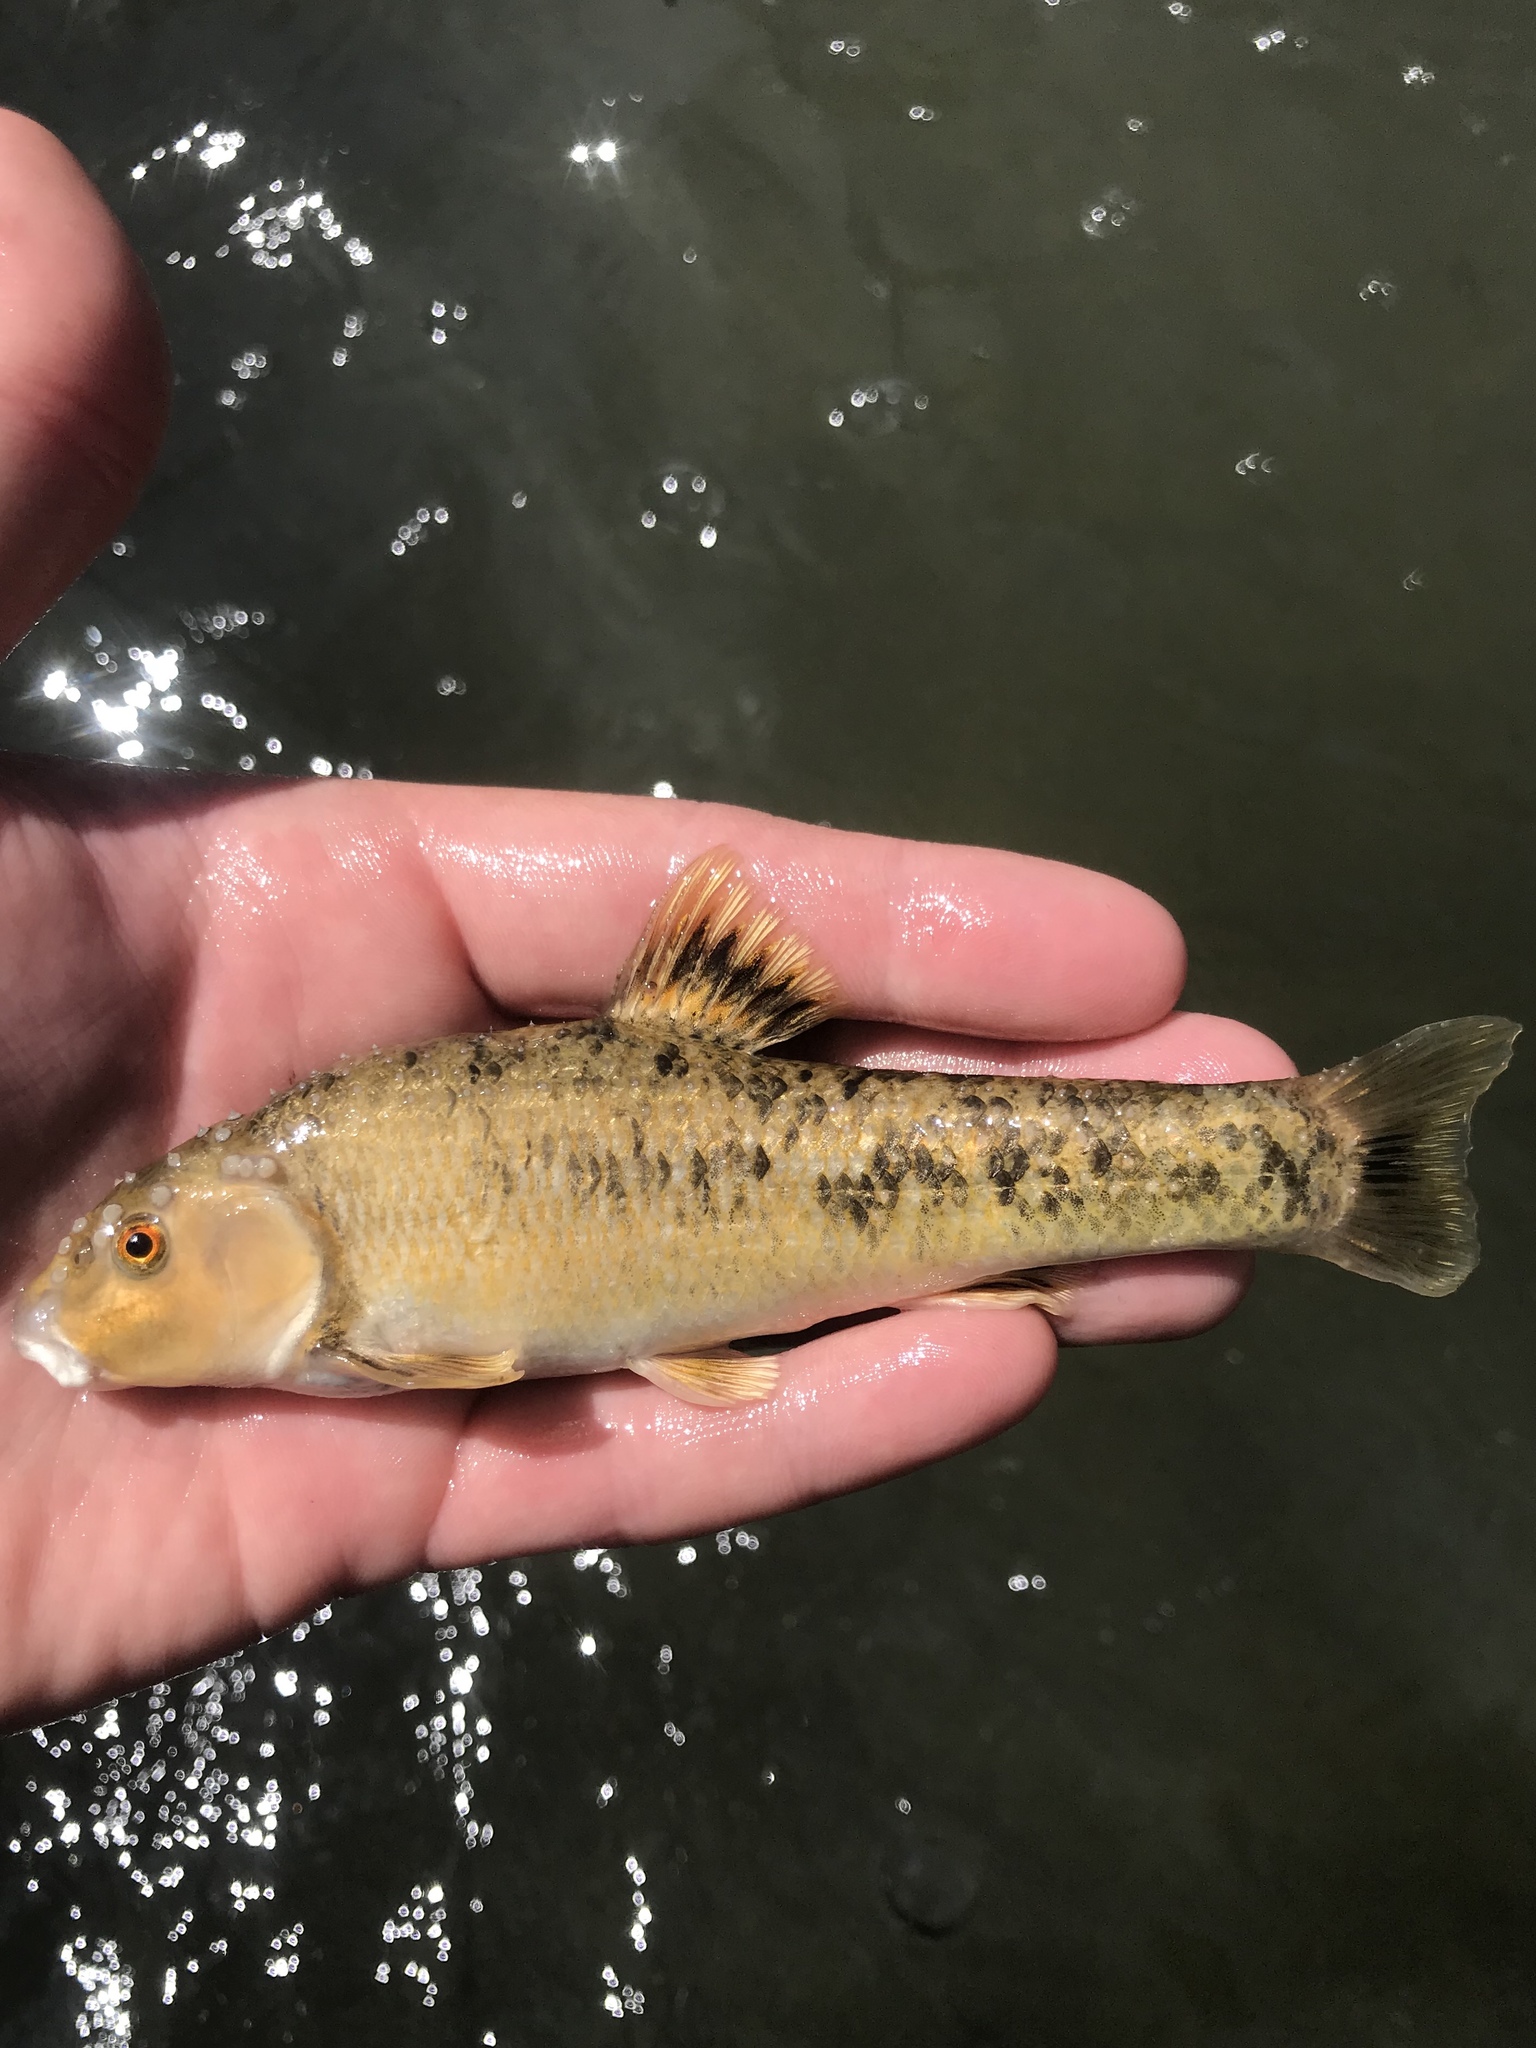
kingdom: Animalia
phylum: Chordata
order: Cypriniformes
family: Cyprinidae
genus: Campostoma
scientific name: Campostoma anomalum
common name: Central stoneroller
